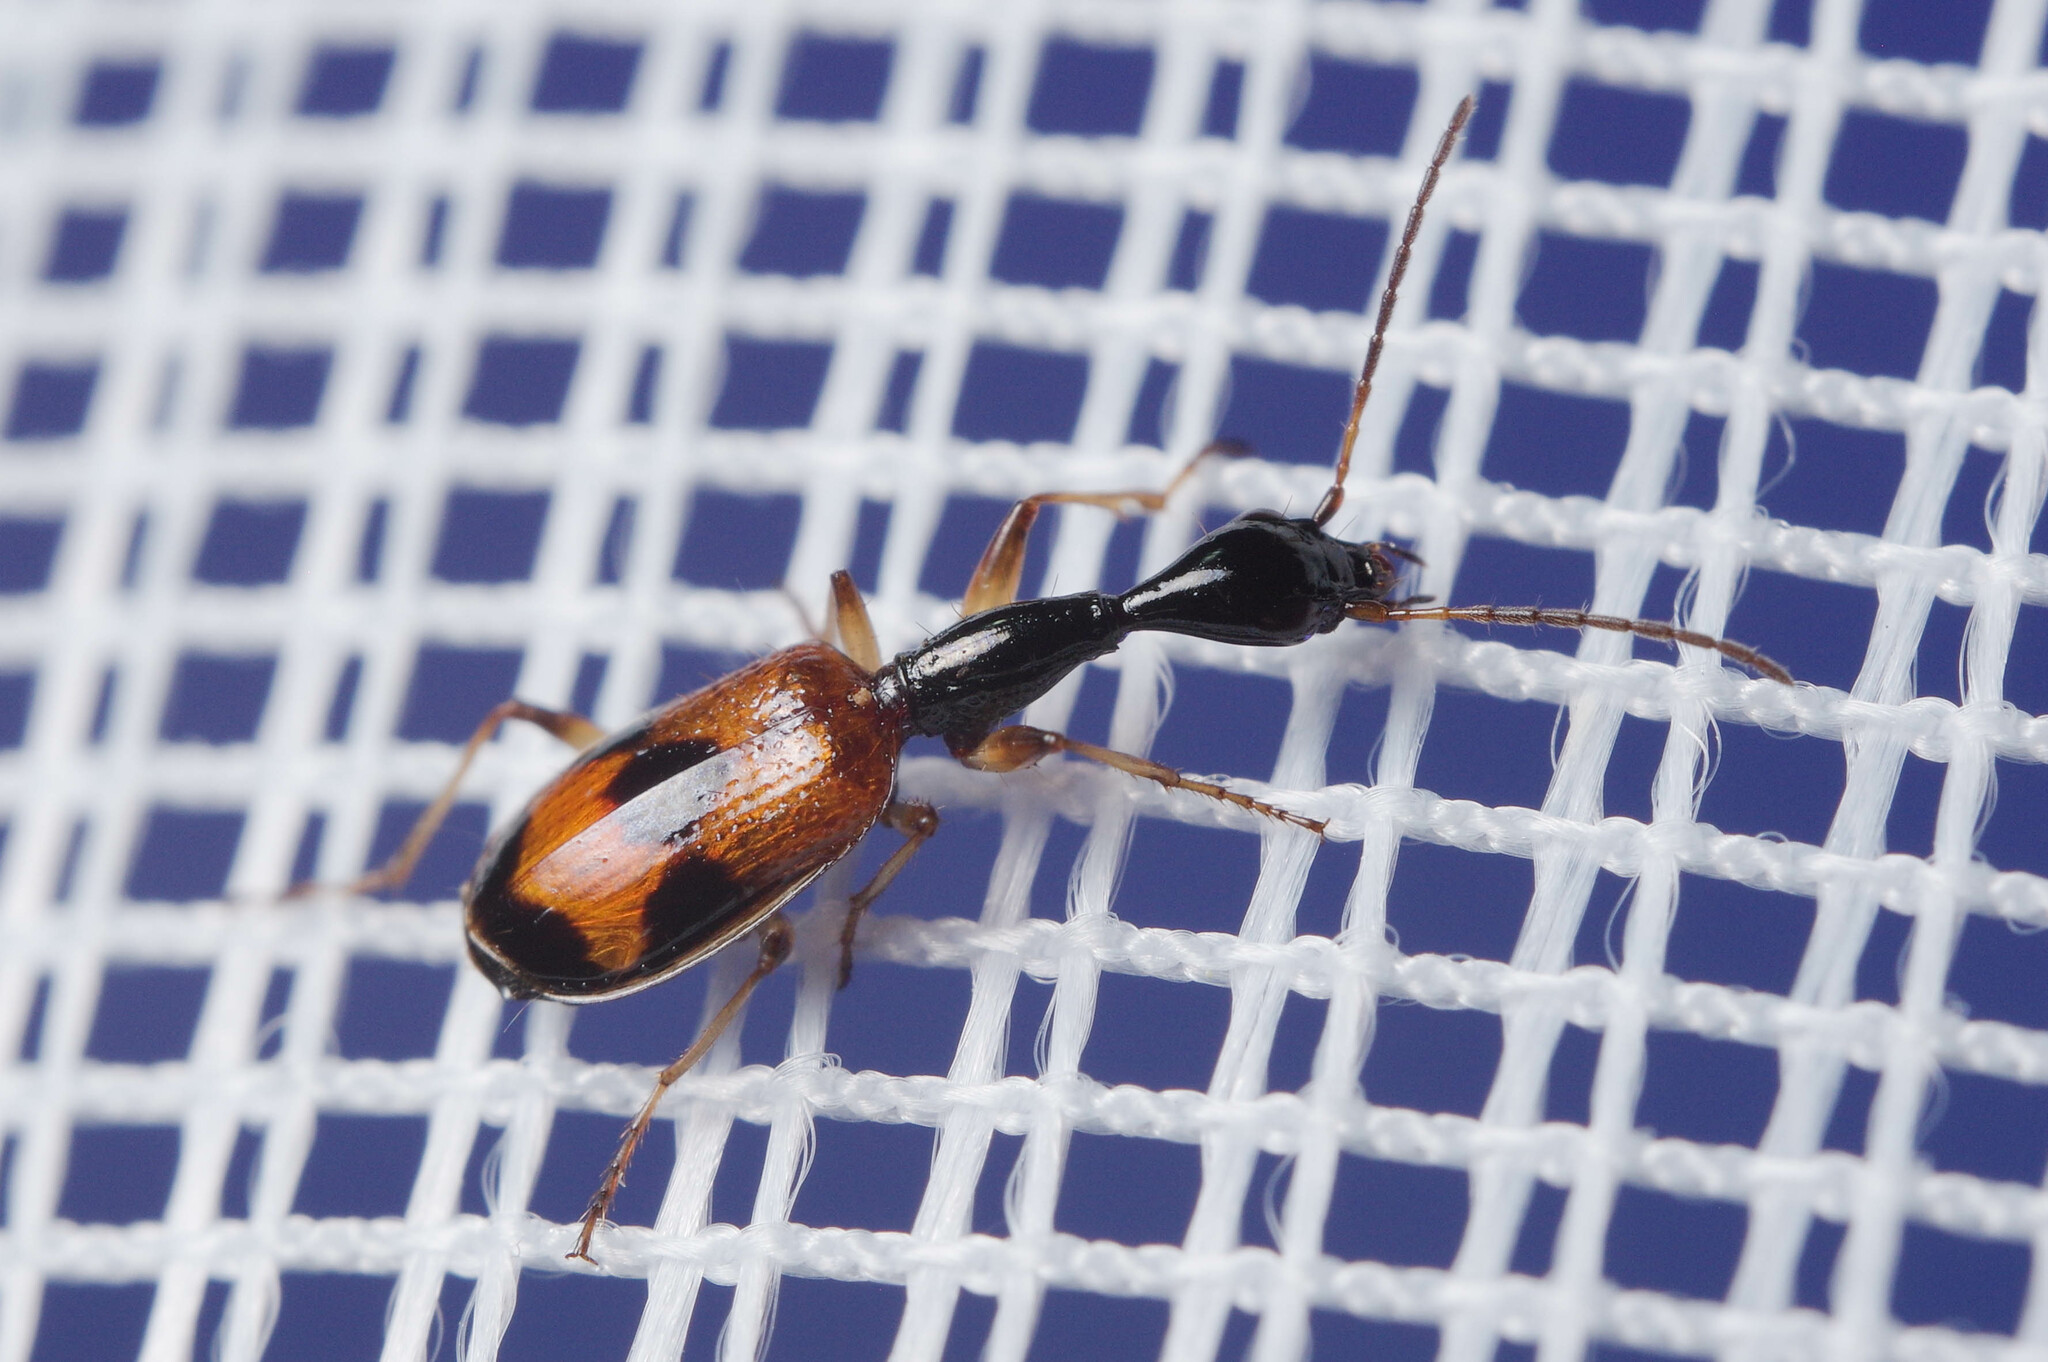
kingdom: Animalia
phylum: Arthropoda
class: Insecta
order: Coleoptera
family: Carabidae
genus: Colliuris
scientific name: Colliuris pensylvanica
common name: Long-necked ground beetle
